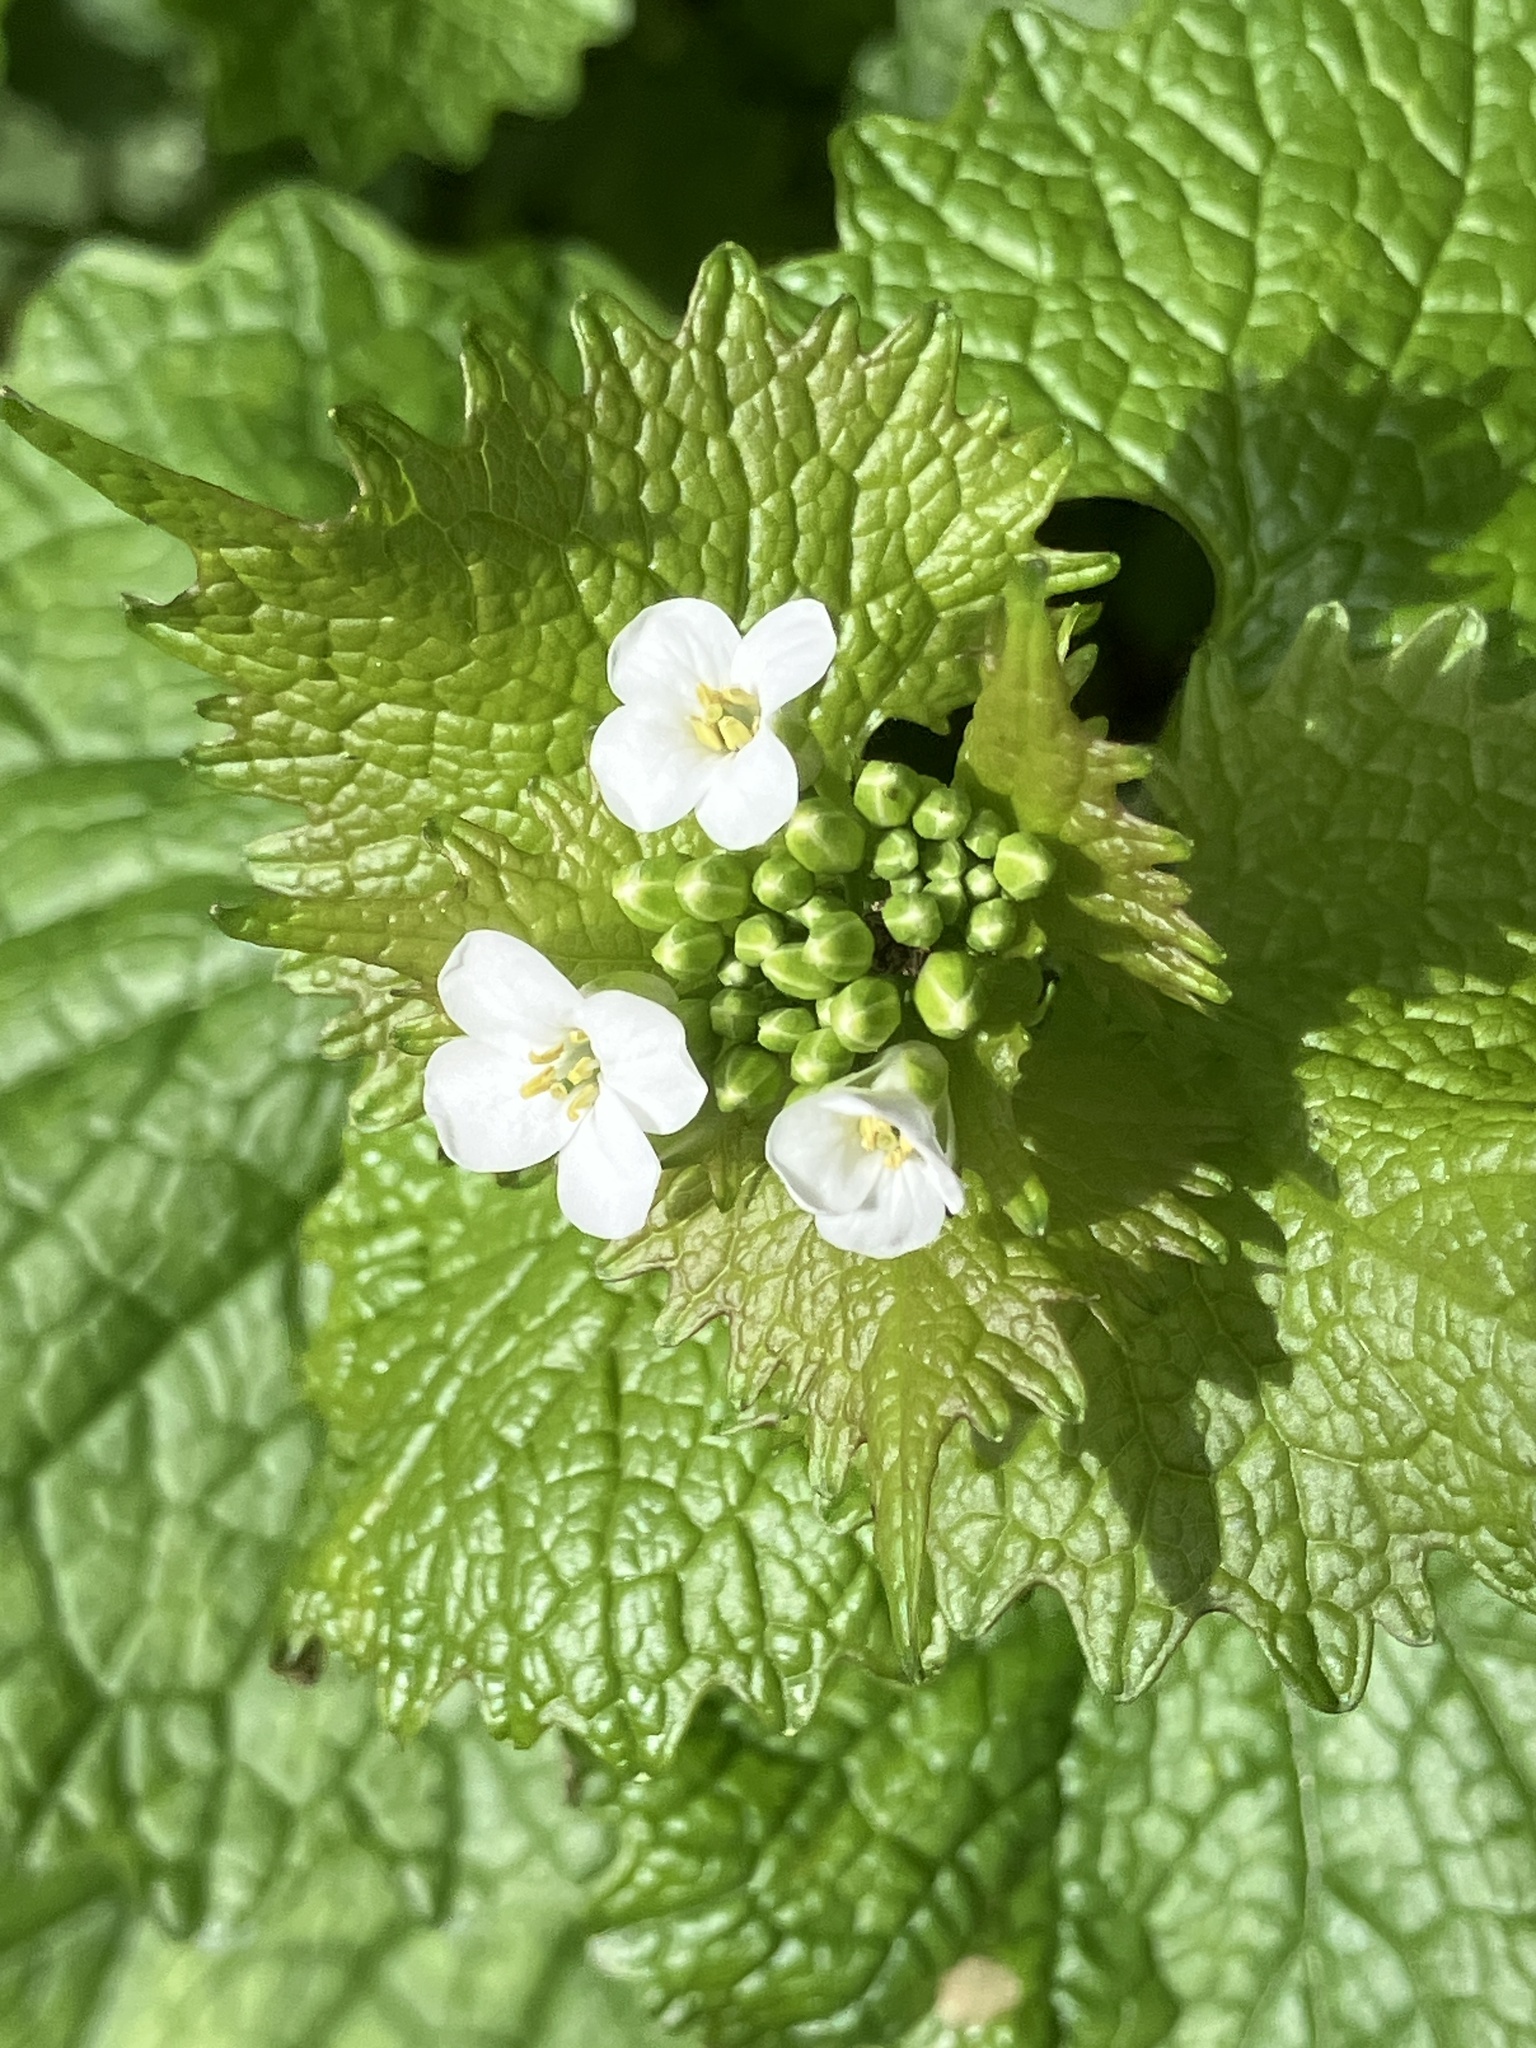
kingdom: Plantae
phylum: Tracheophyta
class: Magnoliopsida
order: Brassicales
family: Brassicaceae
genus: Alliaria
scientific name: Alliaria petiolata
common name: Garlic mustard
